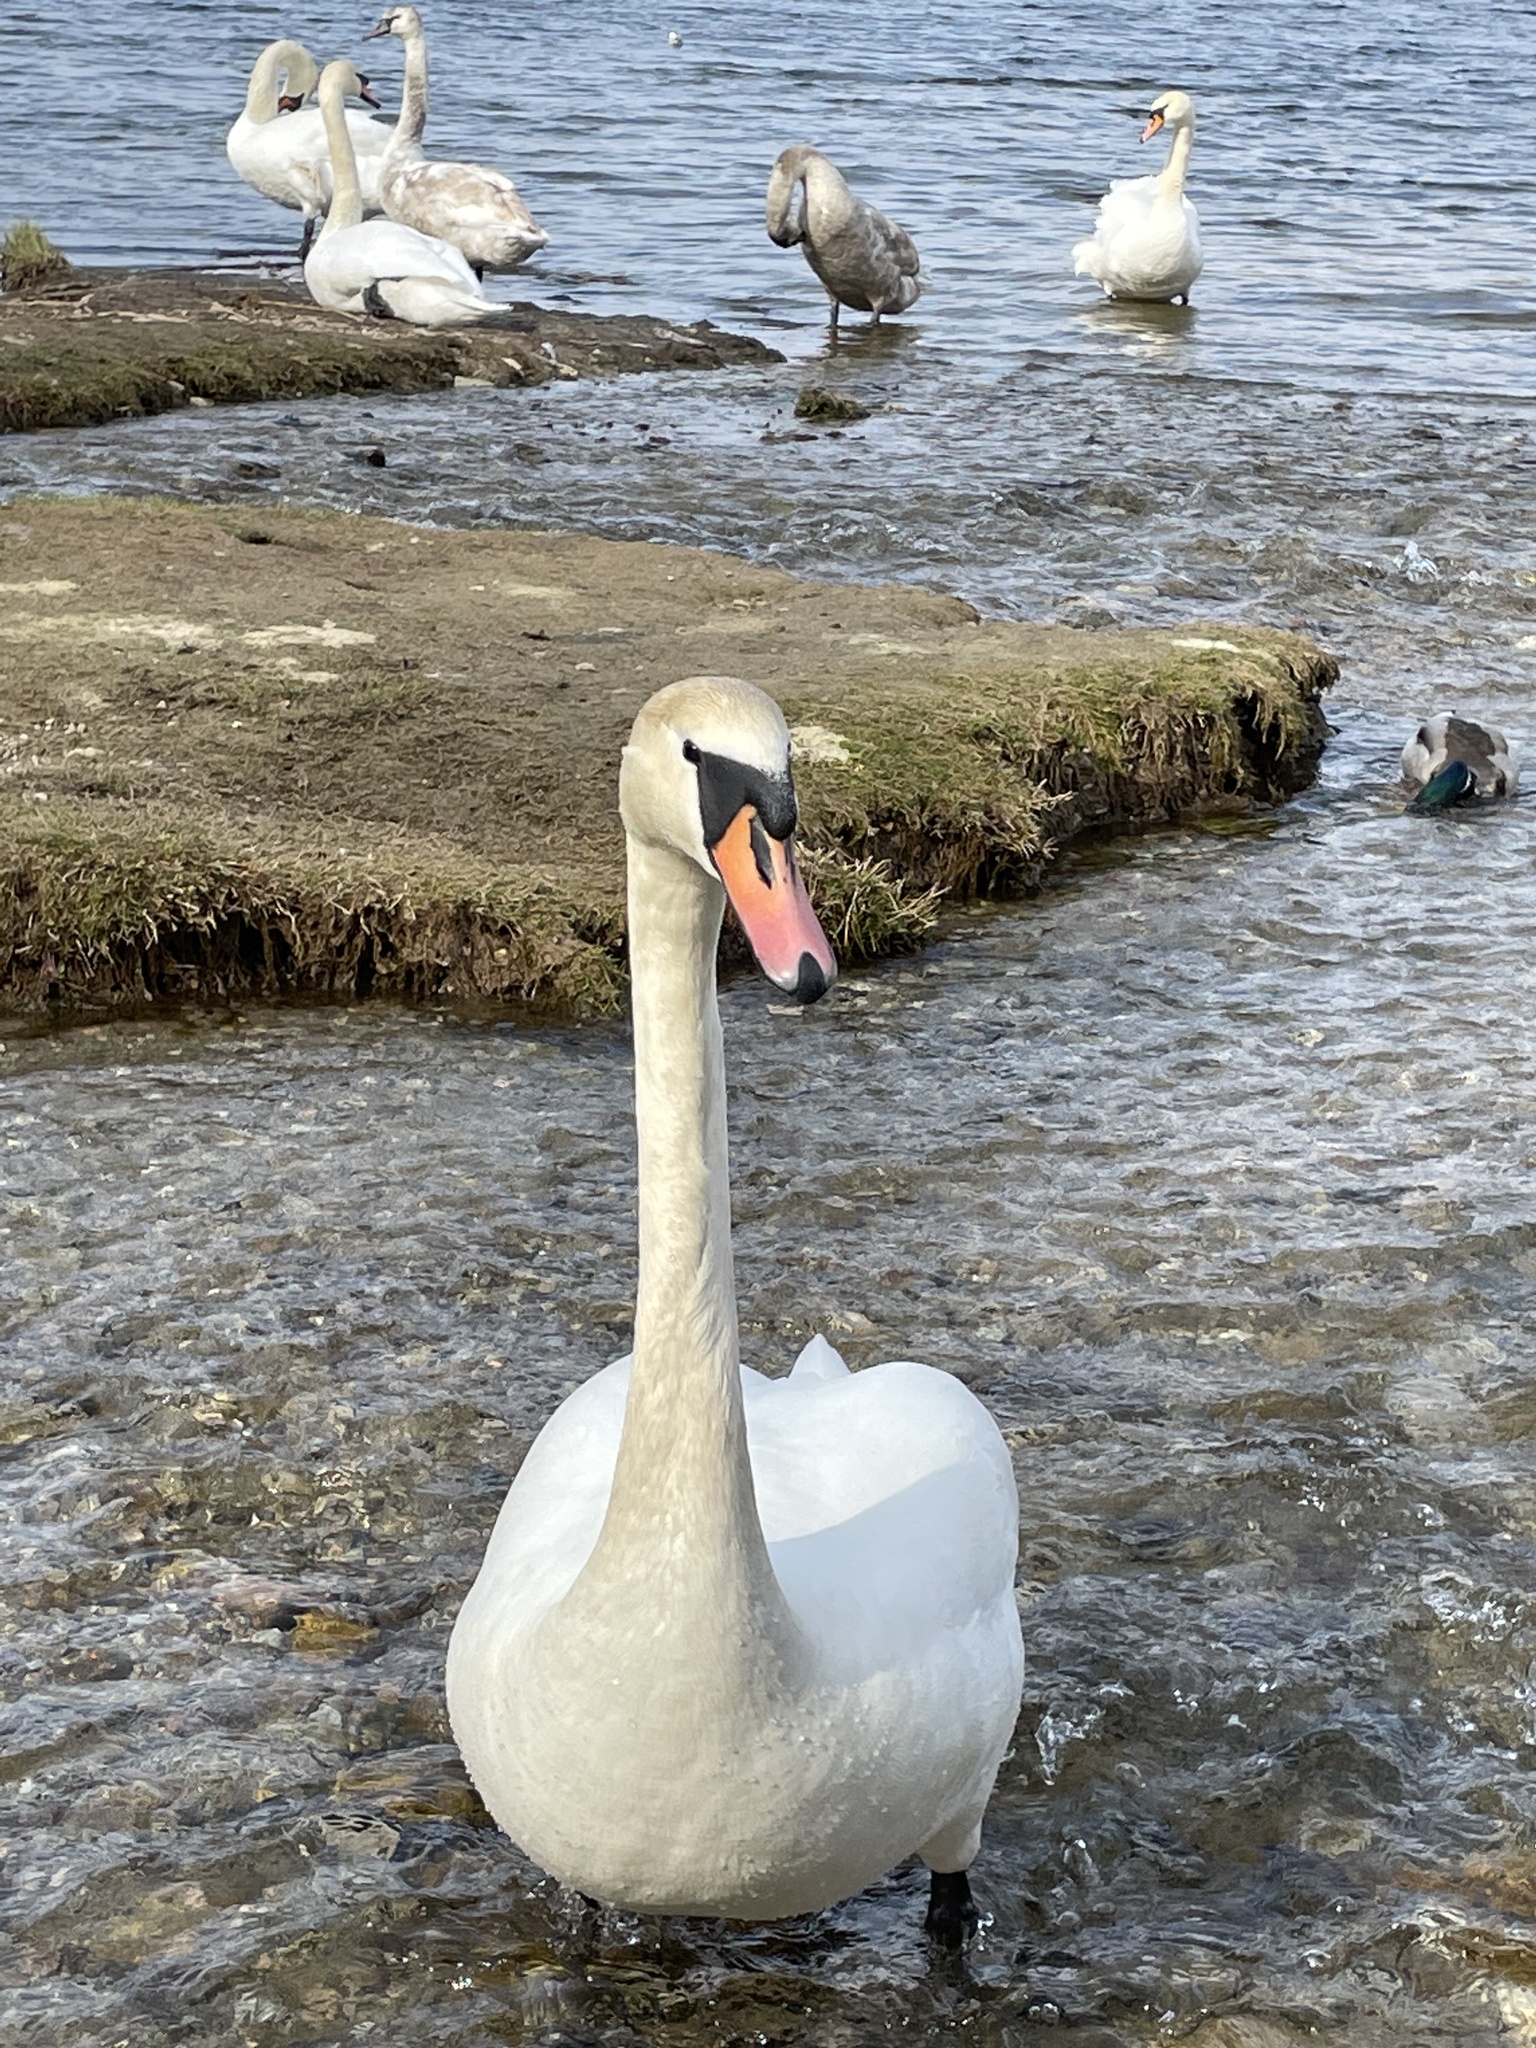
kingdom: Animalia
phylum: Chordata
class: Aves
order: Anseriformes
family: Anatidae
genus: Cygnus
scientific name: Cygnus olor
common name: Mute swan
